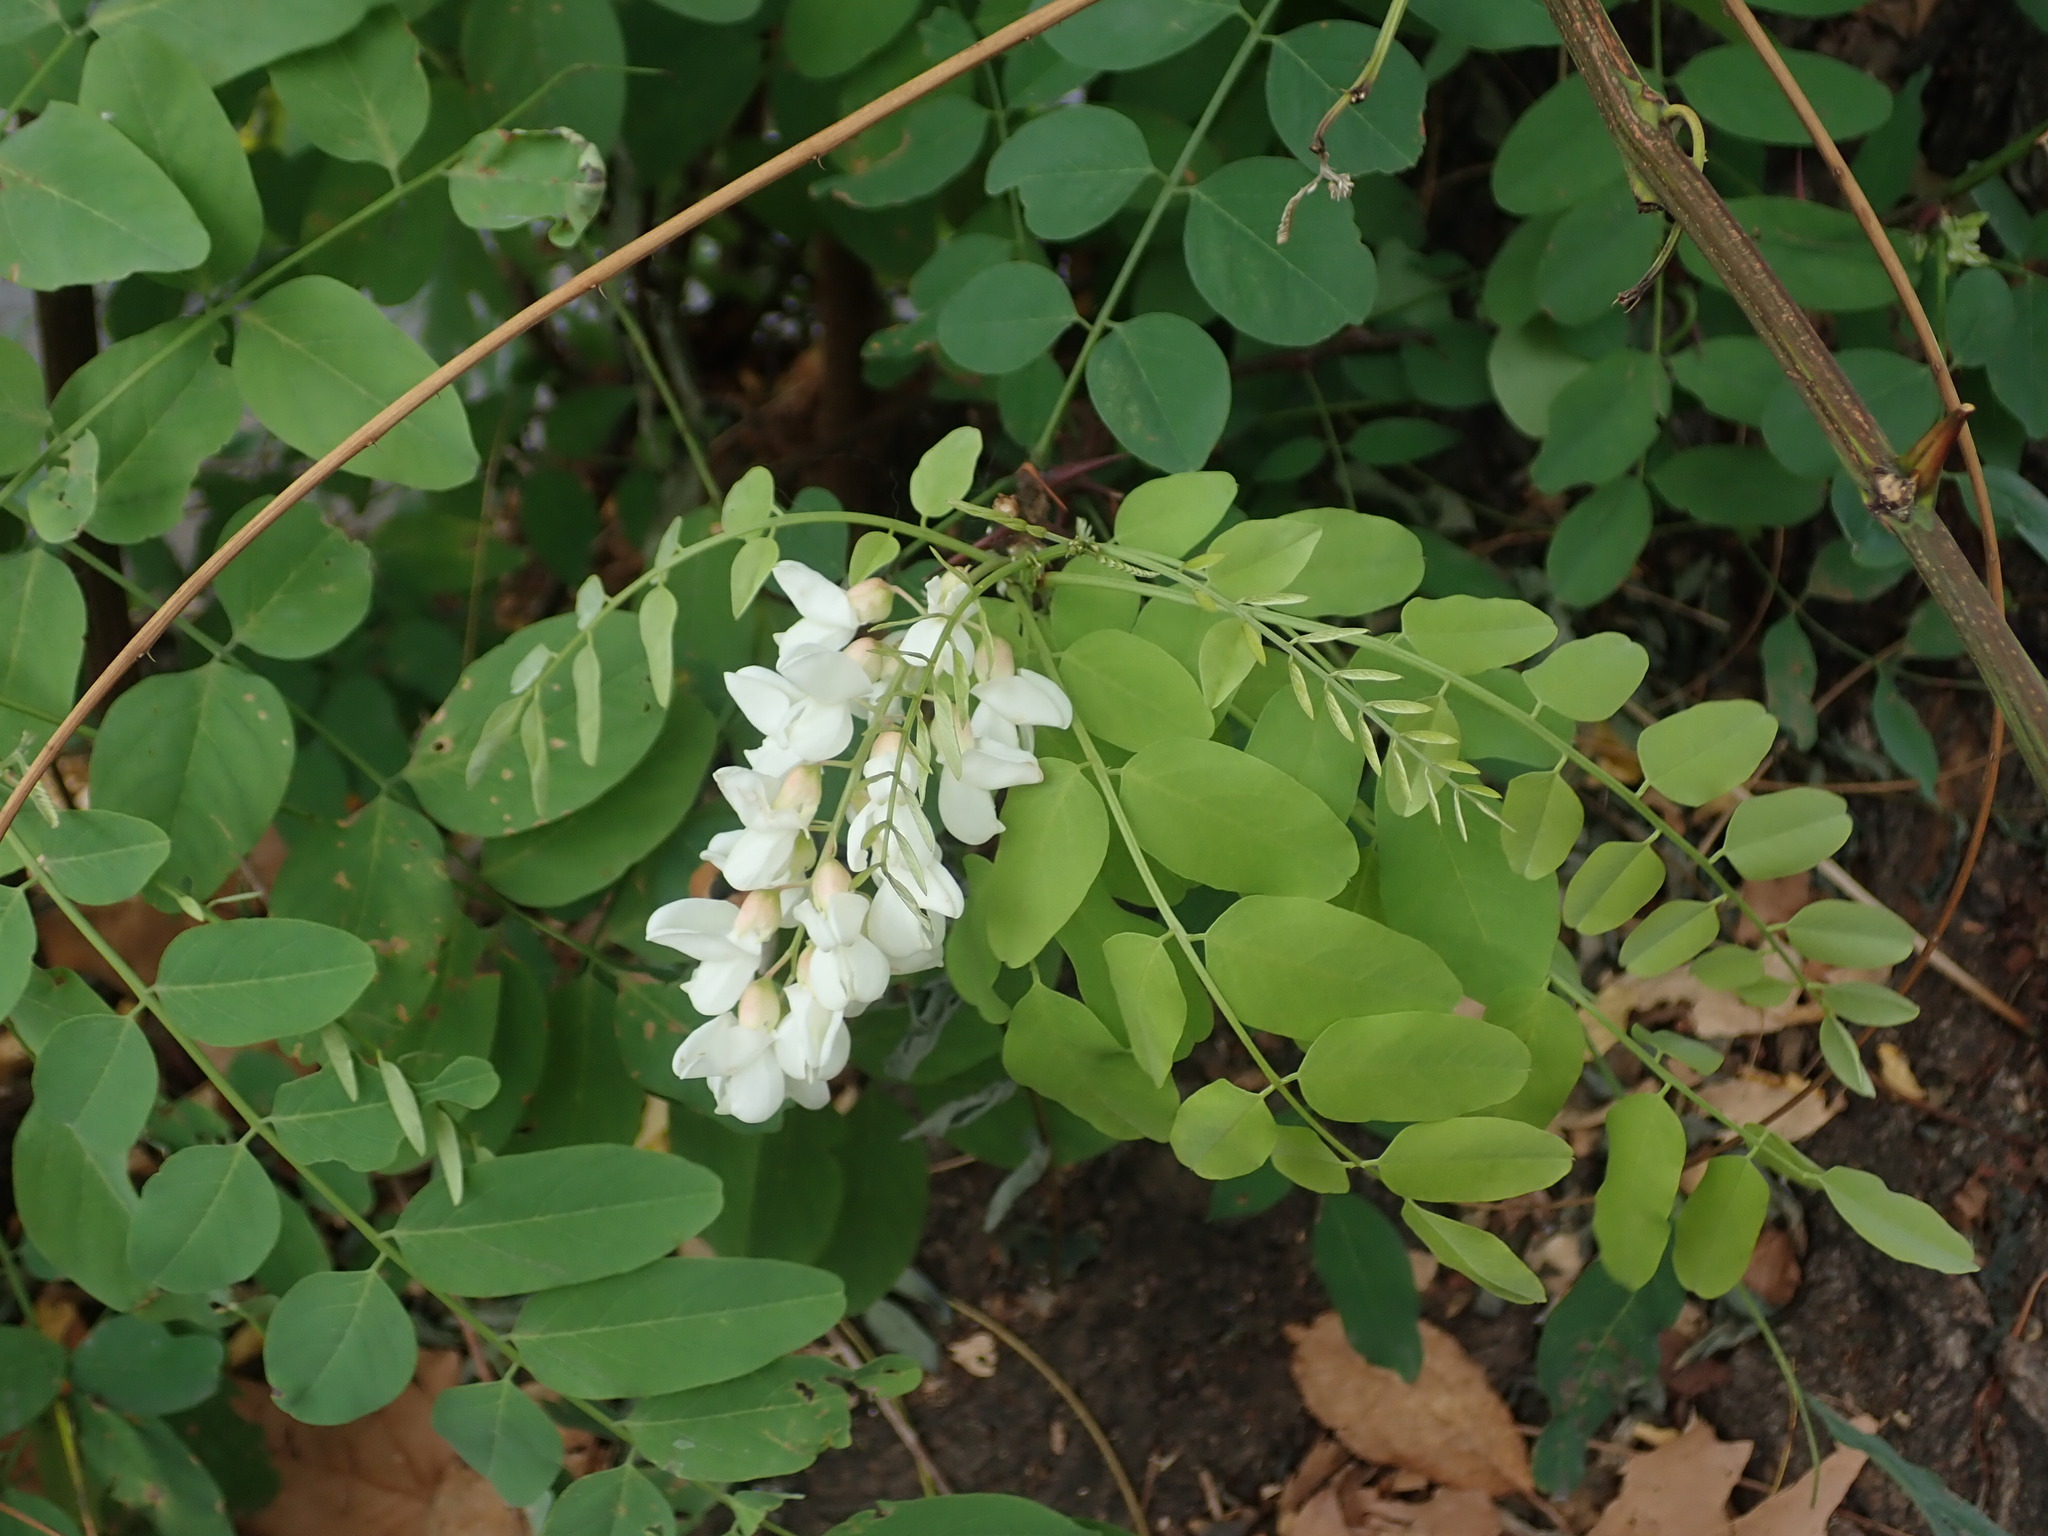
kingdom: Plantae
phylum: Tracheophyta
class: Magnoliopsida
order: Fabales
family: Fabaceae
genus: Robinia
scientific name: Robinia pseudoacacia
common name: Black locust
